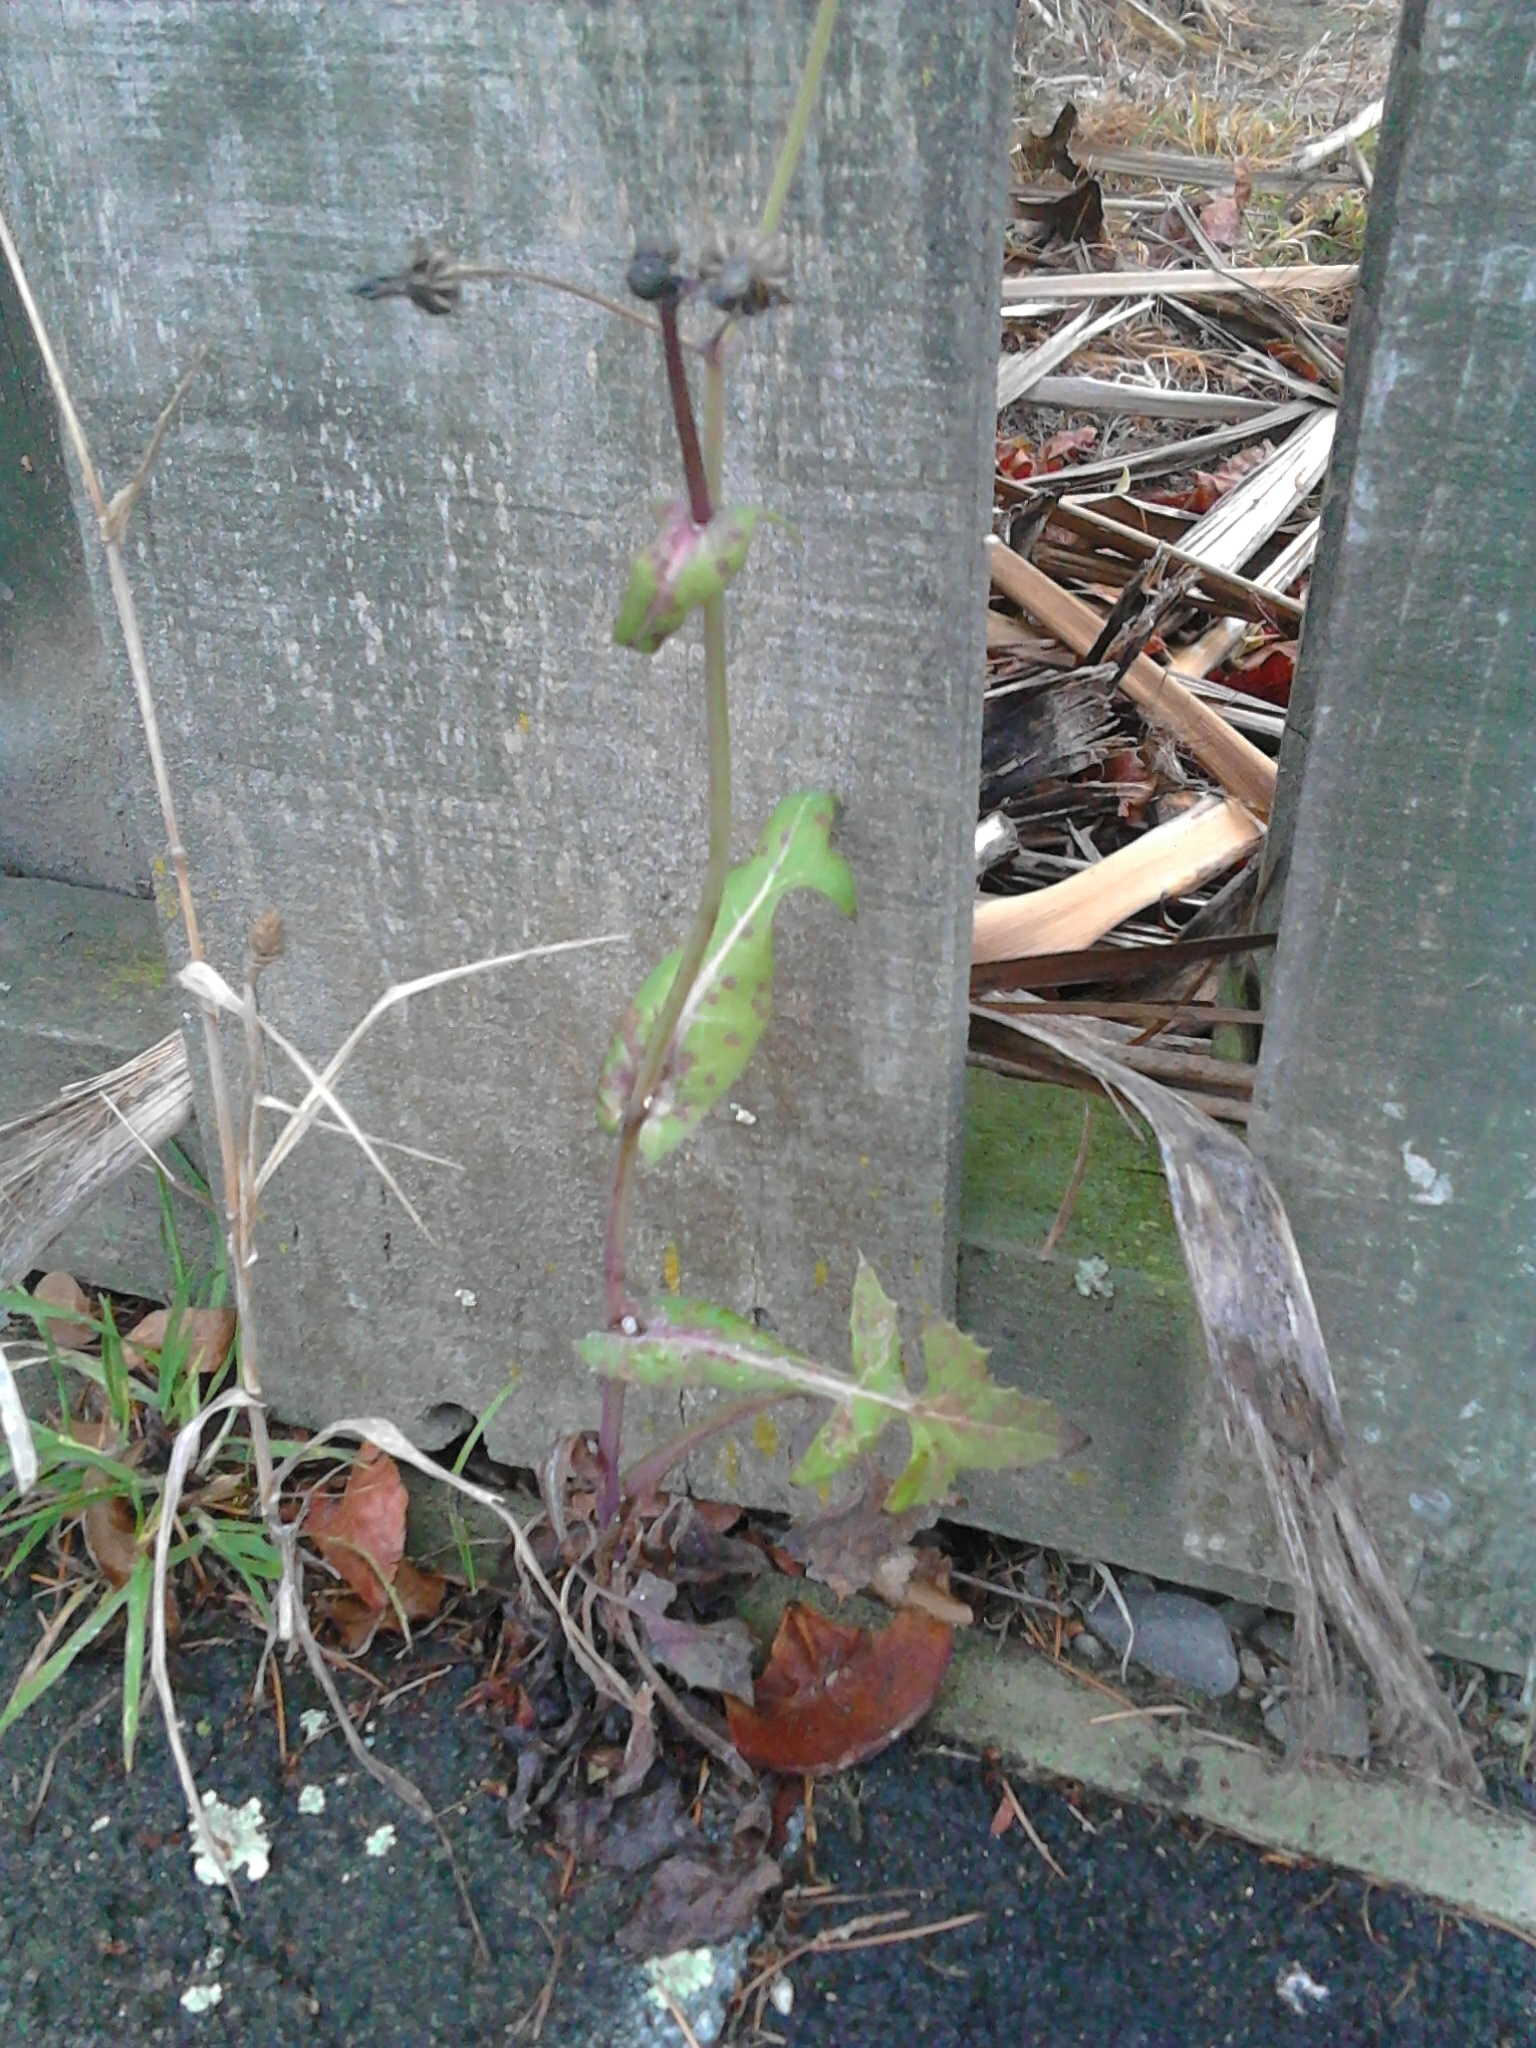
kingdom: Plantae
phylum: Tracheophyta
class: Magnoliopsida
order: Asterales
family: Asteraceae
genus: Sonchus
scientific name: Sonchus oleraceus
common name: Common sowthistle
